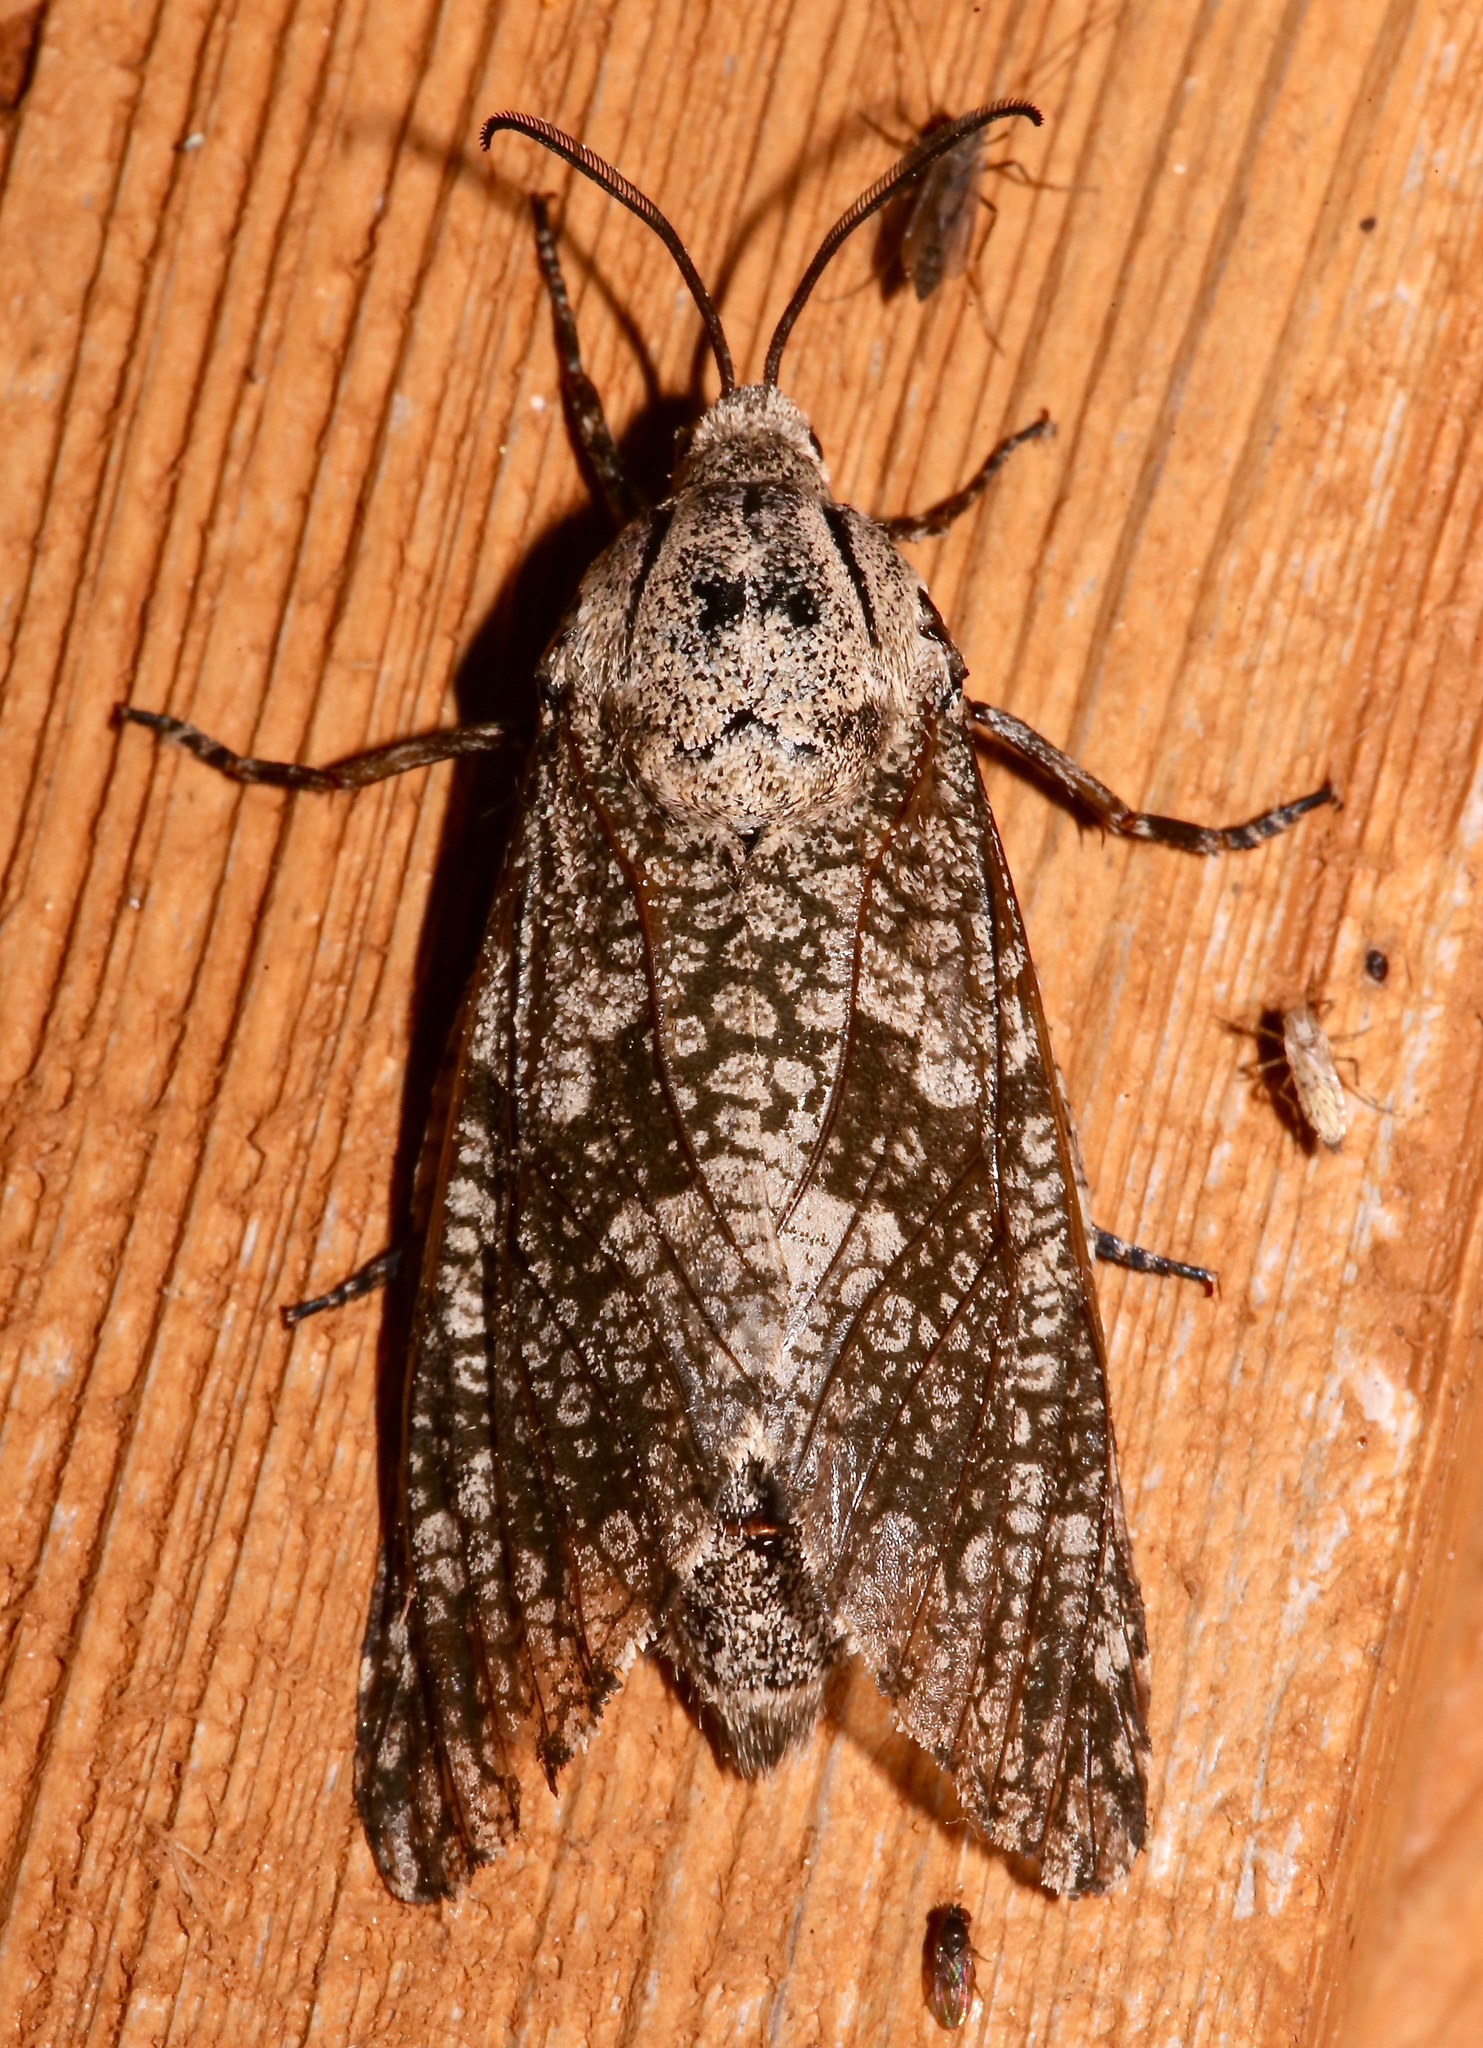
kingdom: Animalia
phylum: Arthropoda
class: Insecta
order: Lepidoptera
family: Cossidae
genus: Prionoxystus
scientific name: Prionoxystus robiniae
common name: Carpenterworm
